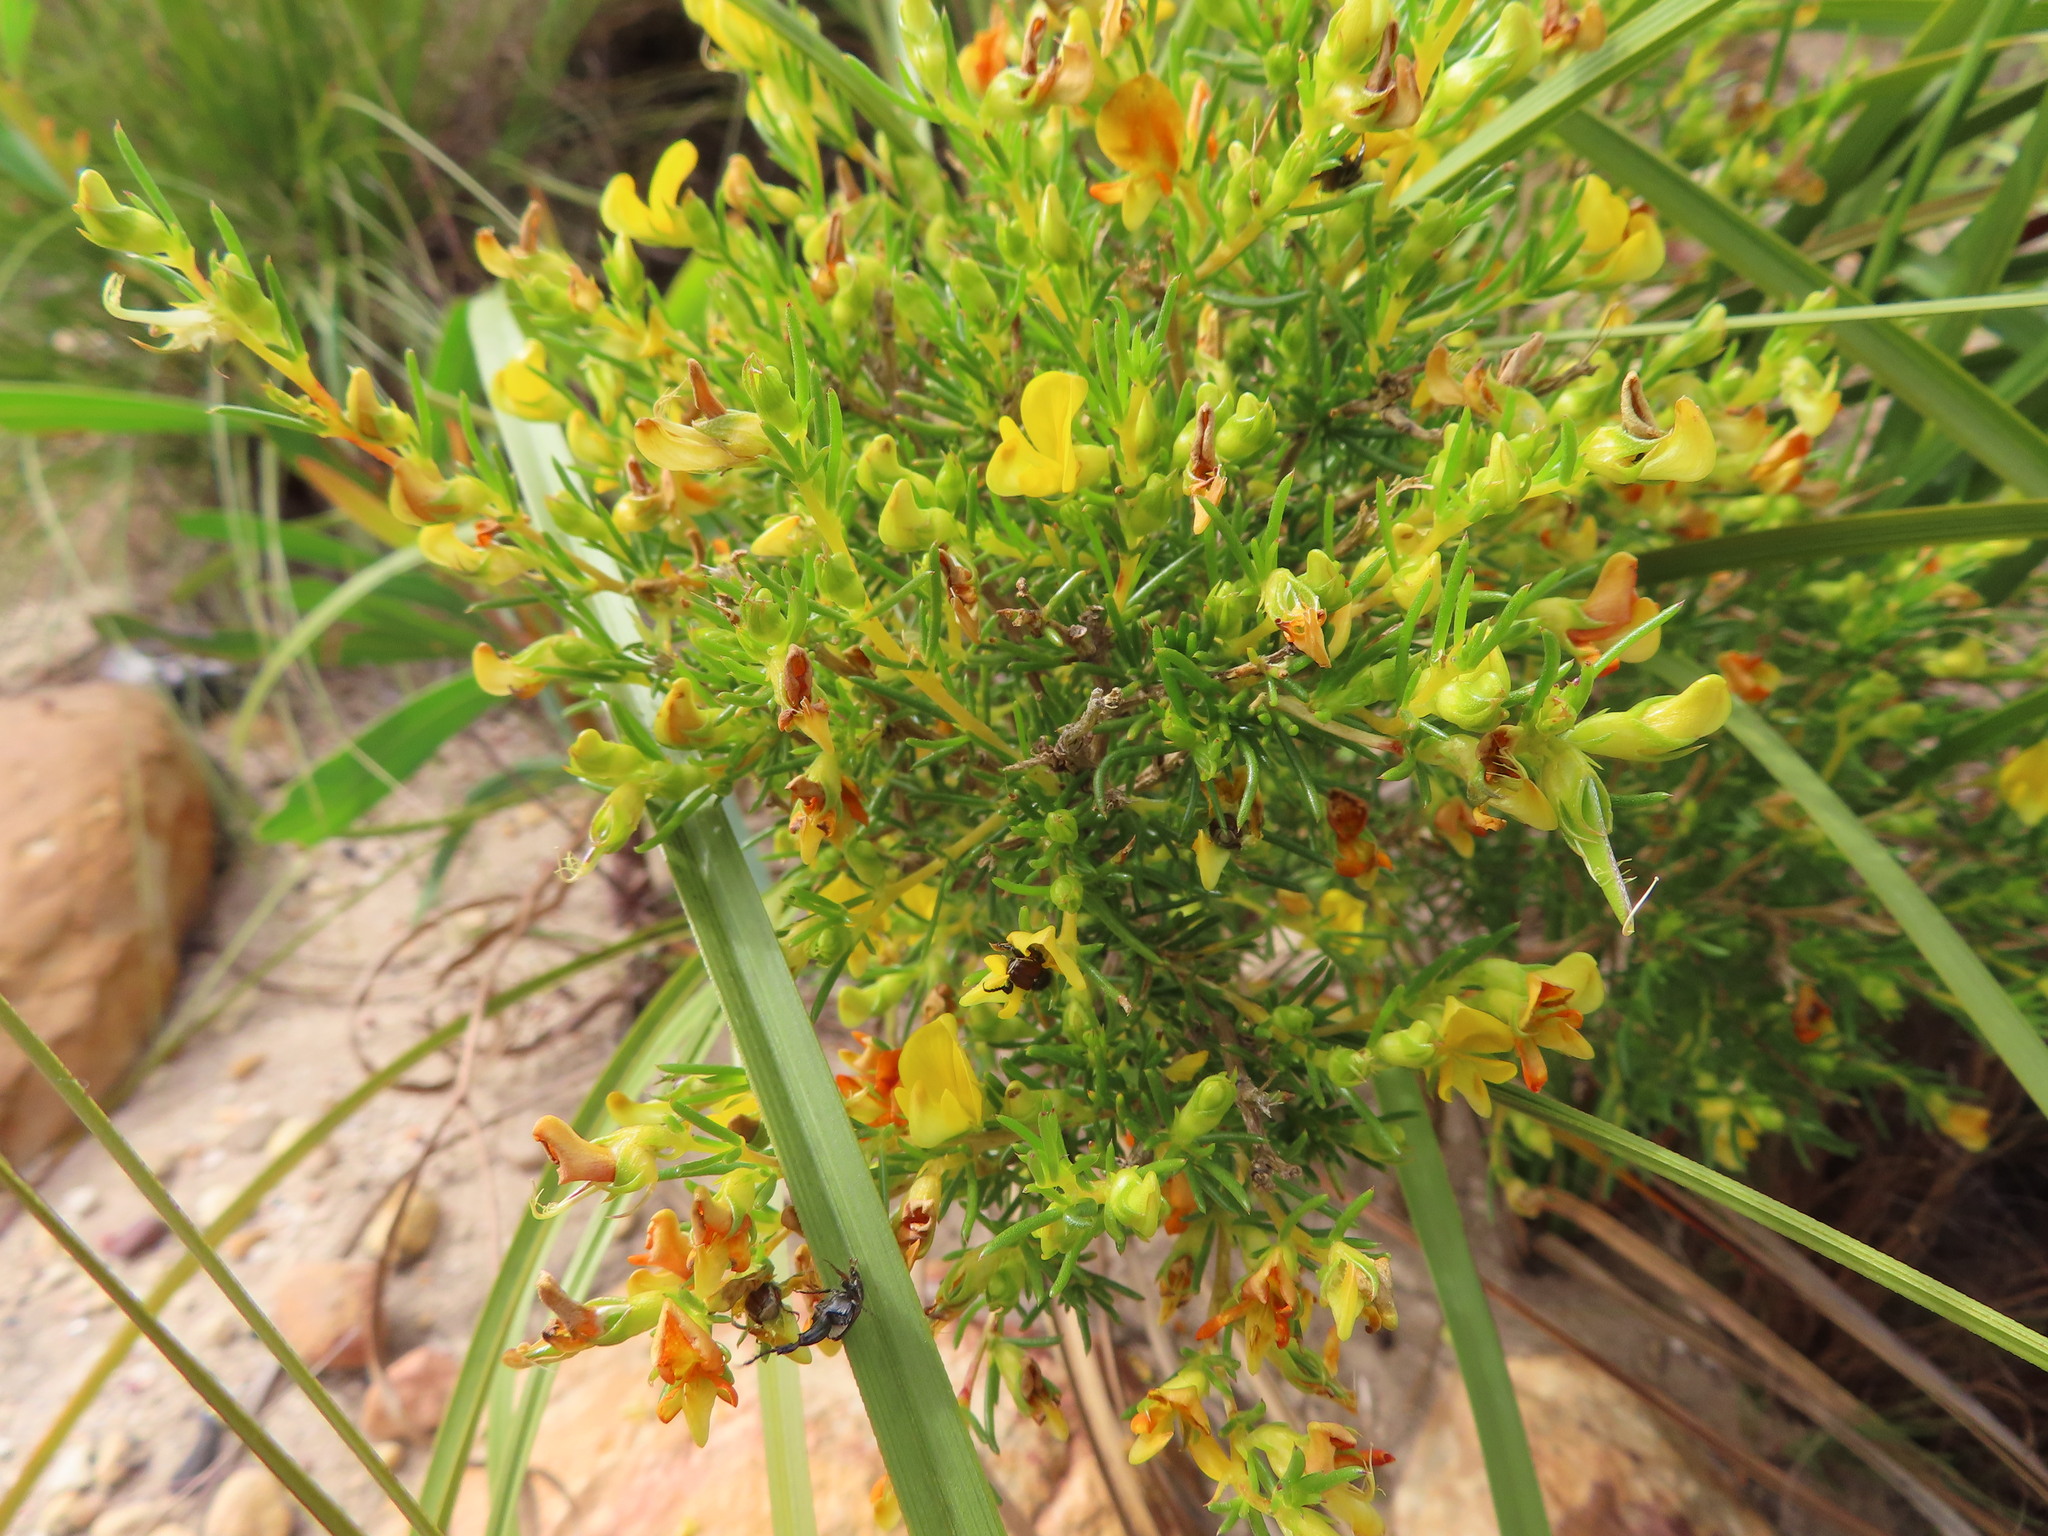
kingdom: Plantae
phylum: Tracheophyta
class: Magnoliopsida
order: Fabales
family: Fabaceae
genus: Aspalathus
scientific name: Aspalathus spinosa
